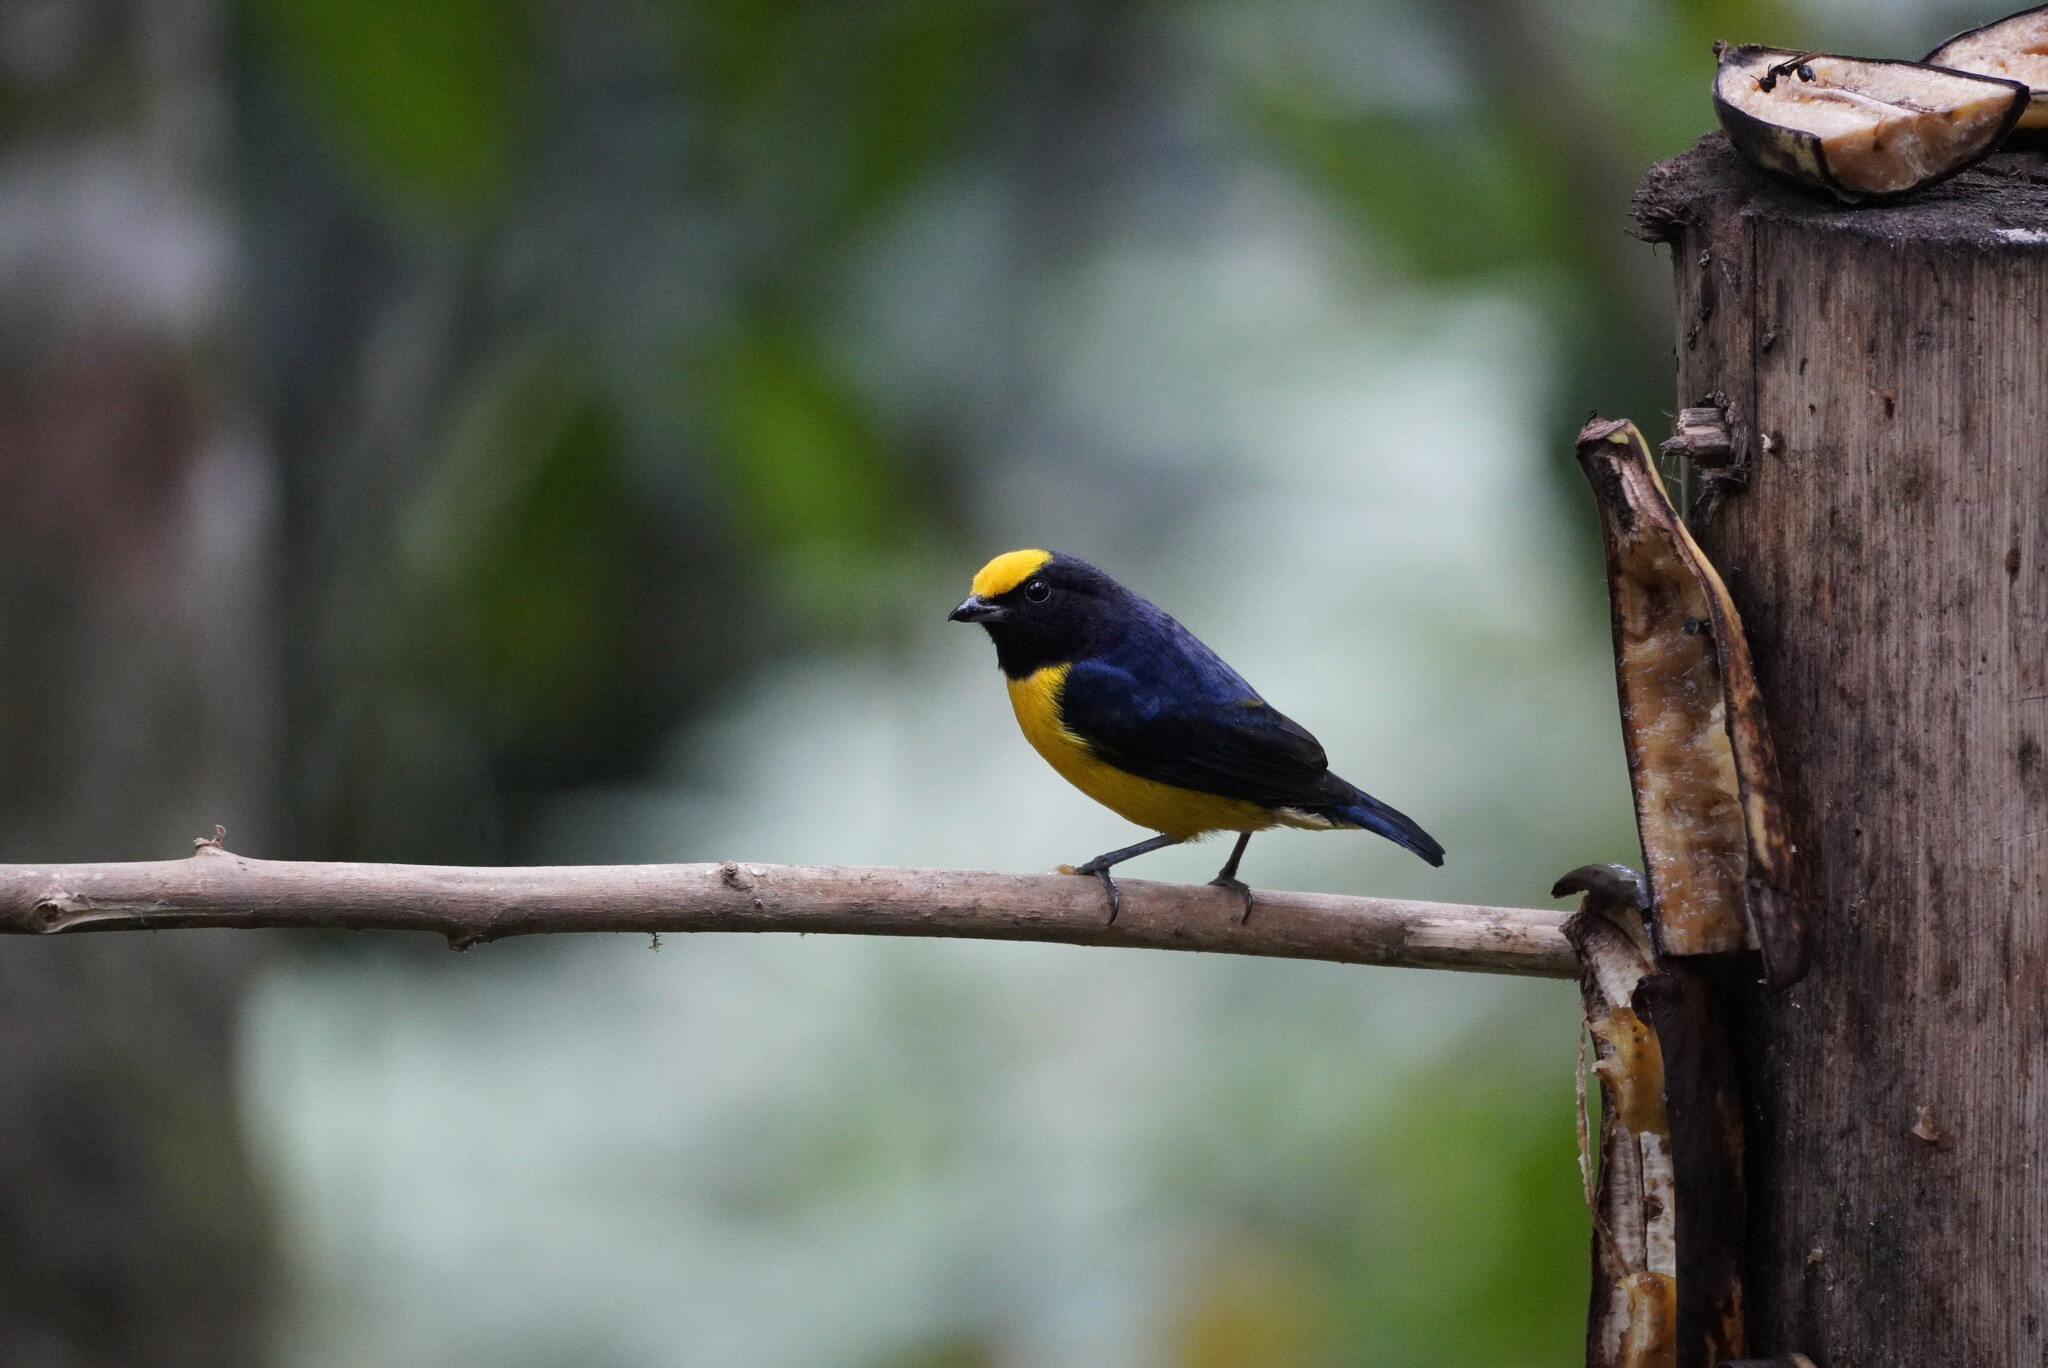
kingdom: Animalia
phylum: Chordata
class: Aves
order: Passeriformes
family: Fringillidae
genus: Euphonia
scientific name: Euphonia xanthogaster
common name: Orange-bellied euphonia
